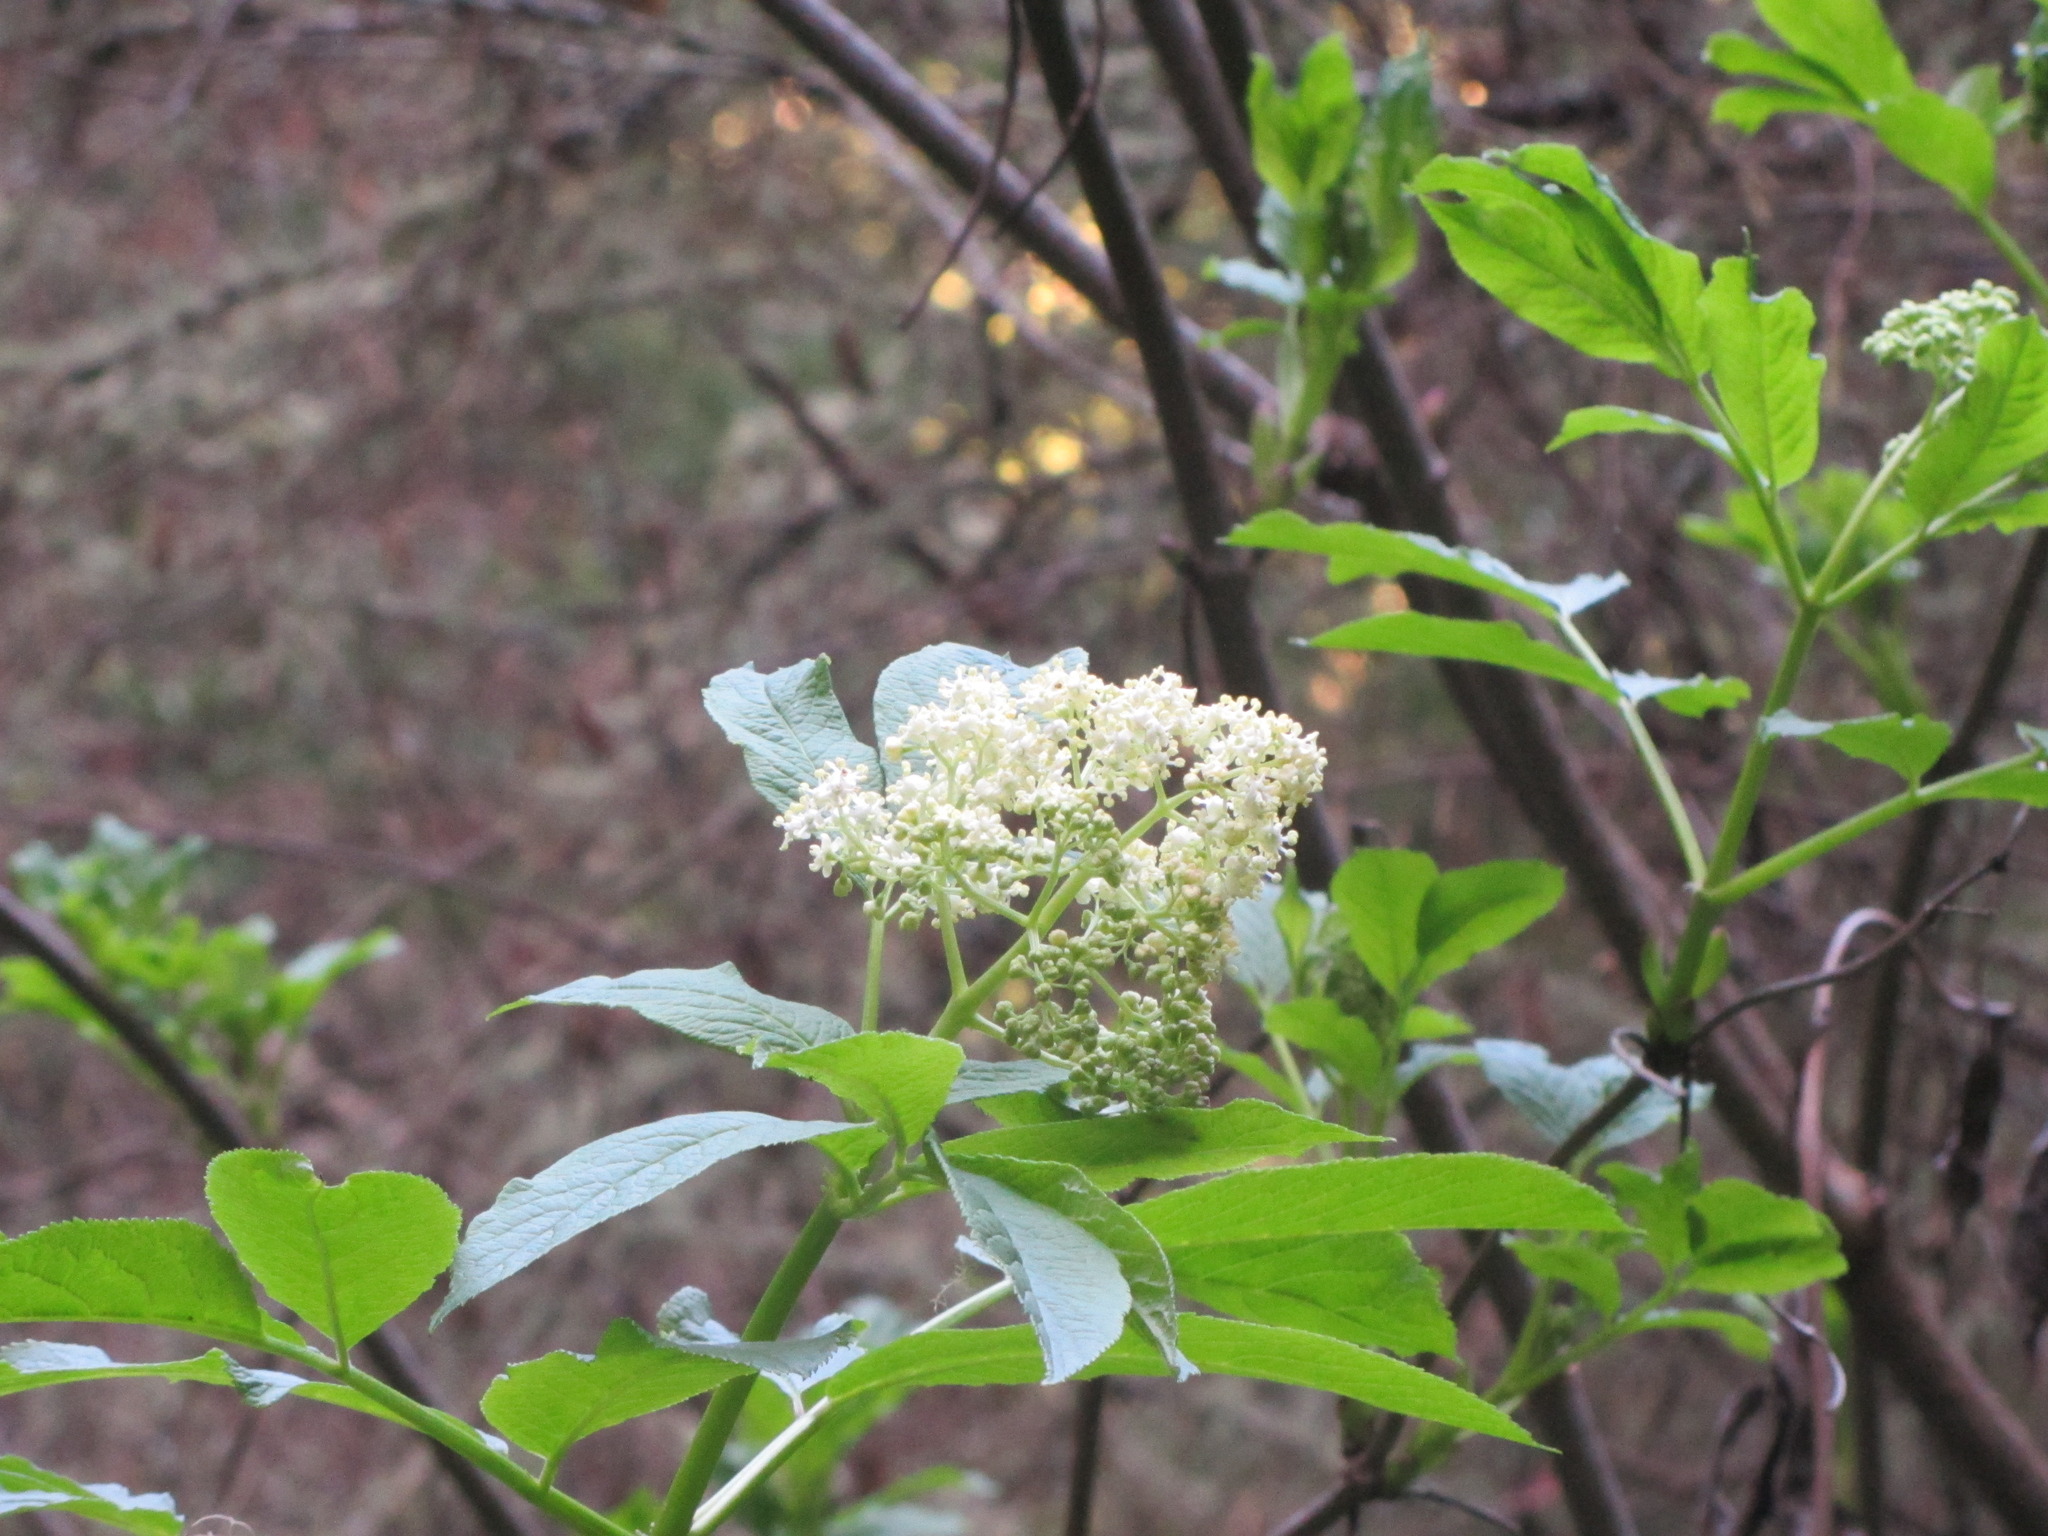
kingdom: Plantae
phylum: Tracheophyta
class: Magnoliopsida
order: Dipsacales
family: Viburnaceae
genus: Sambucus
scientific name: Sambucus racemosa
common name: Red-berried elder
